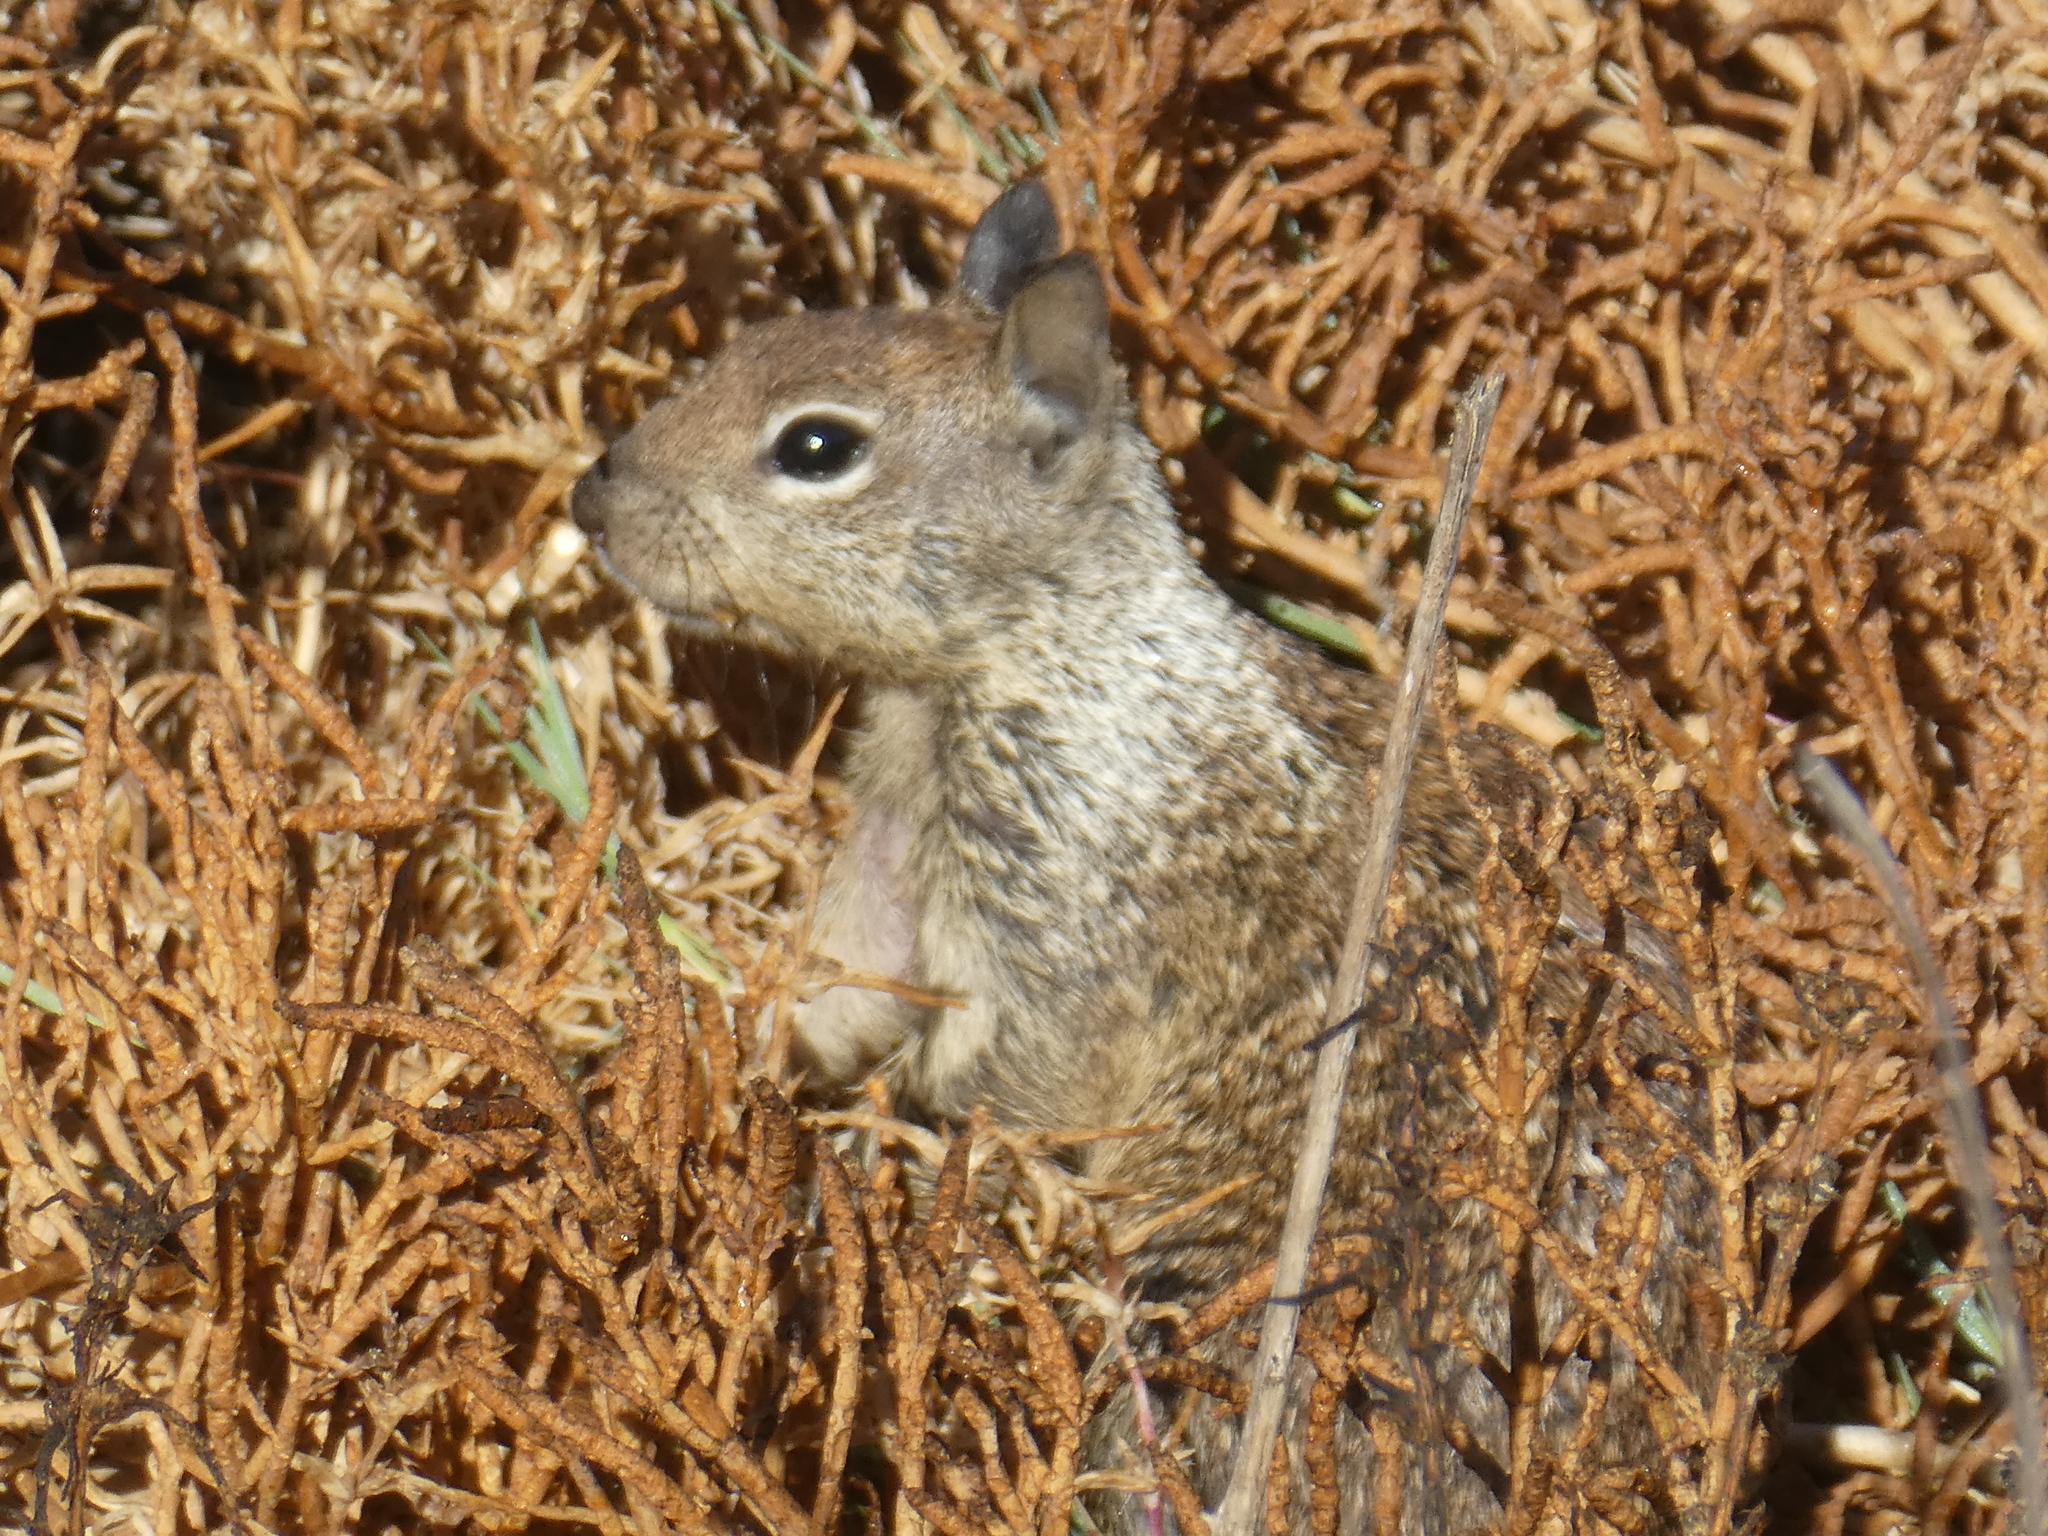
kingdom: Animalia
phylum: Chordata
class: Mammalia
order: Rodentia
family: Sciuridae
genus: Otospermophilus
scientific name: Otospermophilus beecheyi
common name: California ground squirrel
